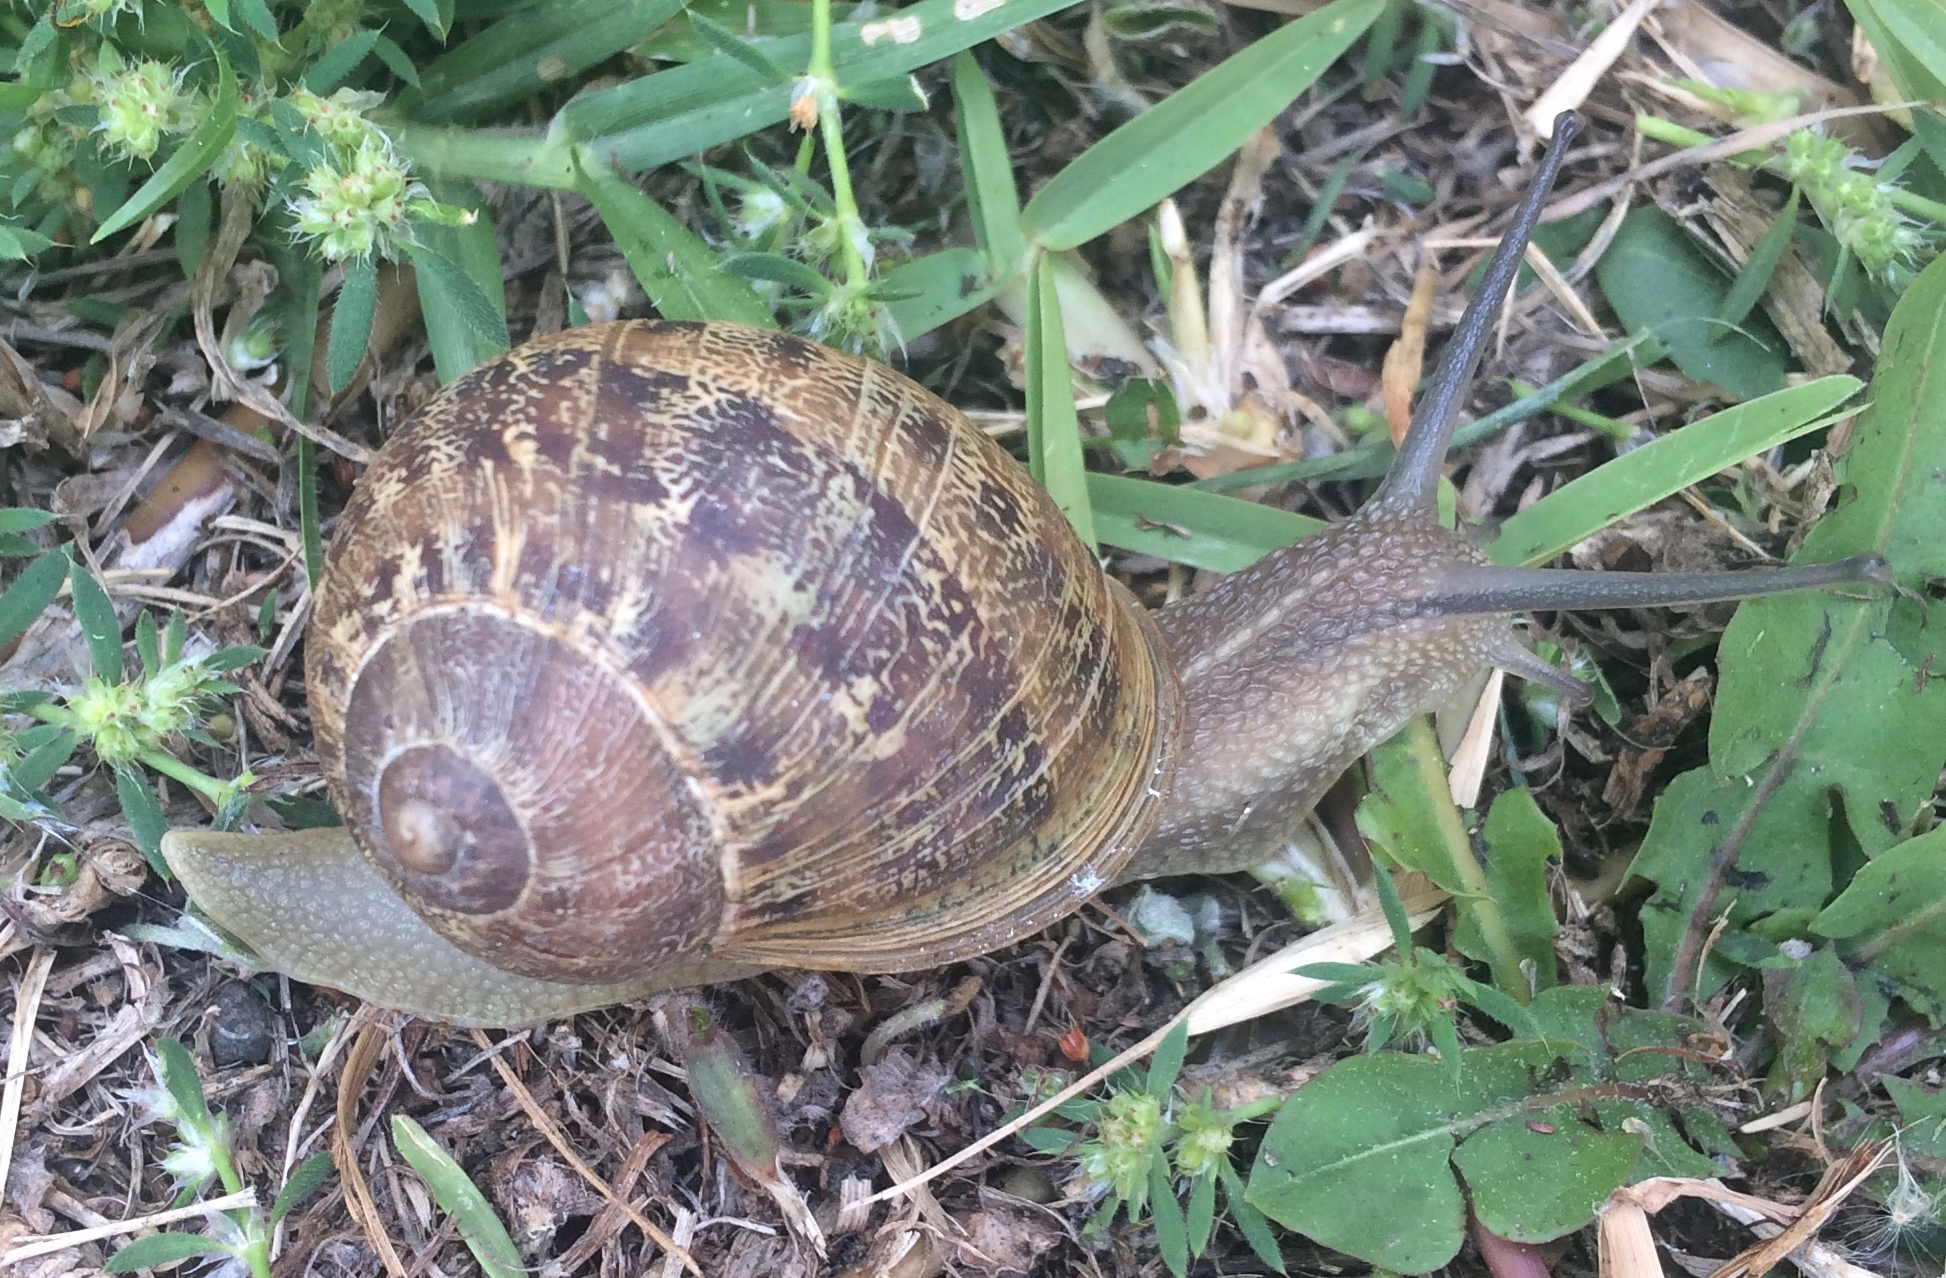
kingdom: Animalia
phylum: Mollusca
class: Gastropoda
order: Stylommatophora
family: Helicidae
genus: Cornu
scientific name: Cornu aspersum
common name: Brown garden snail
